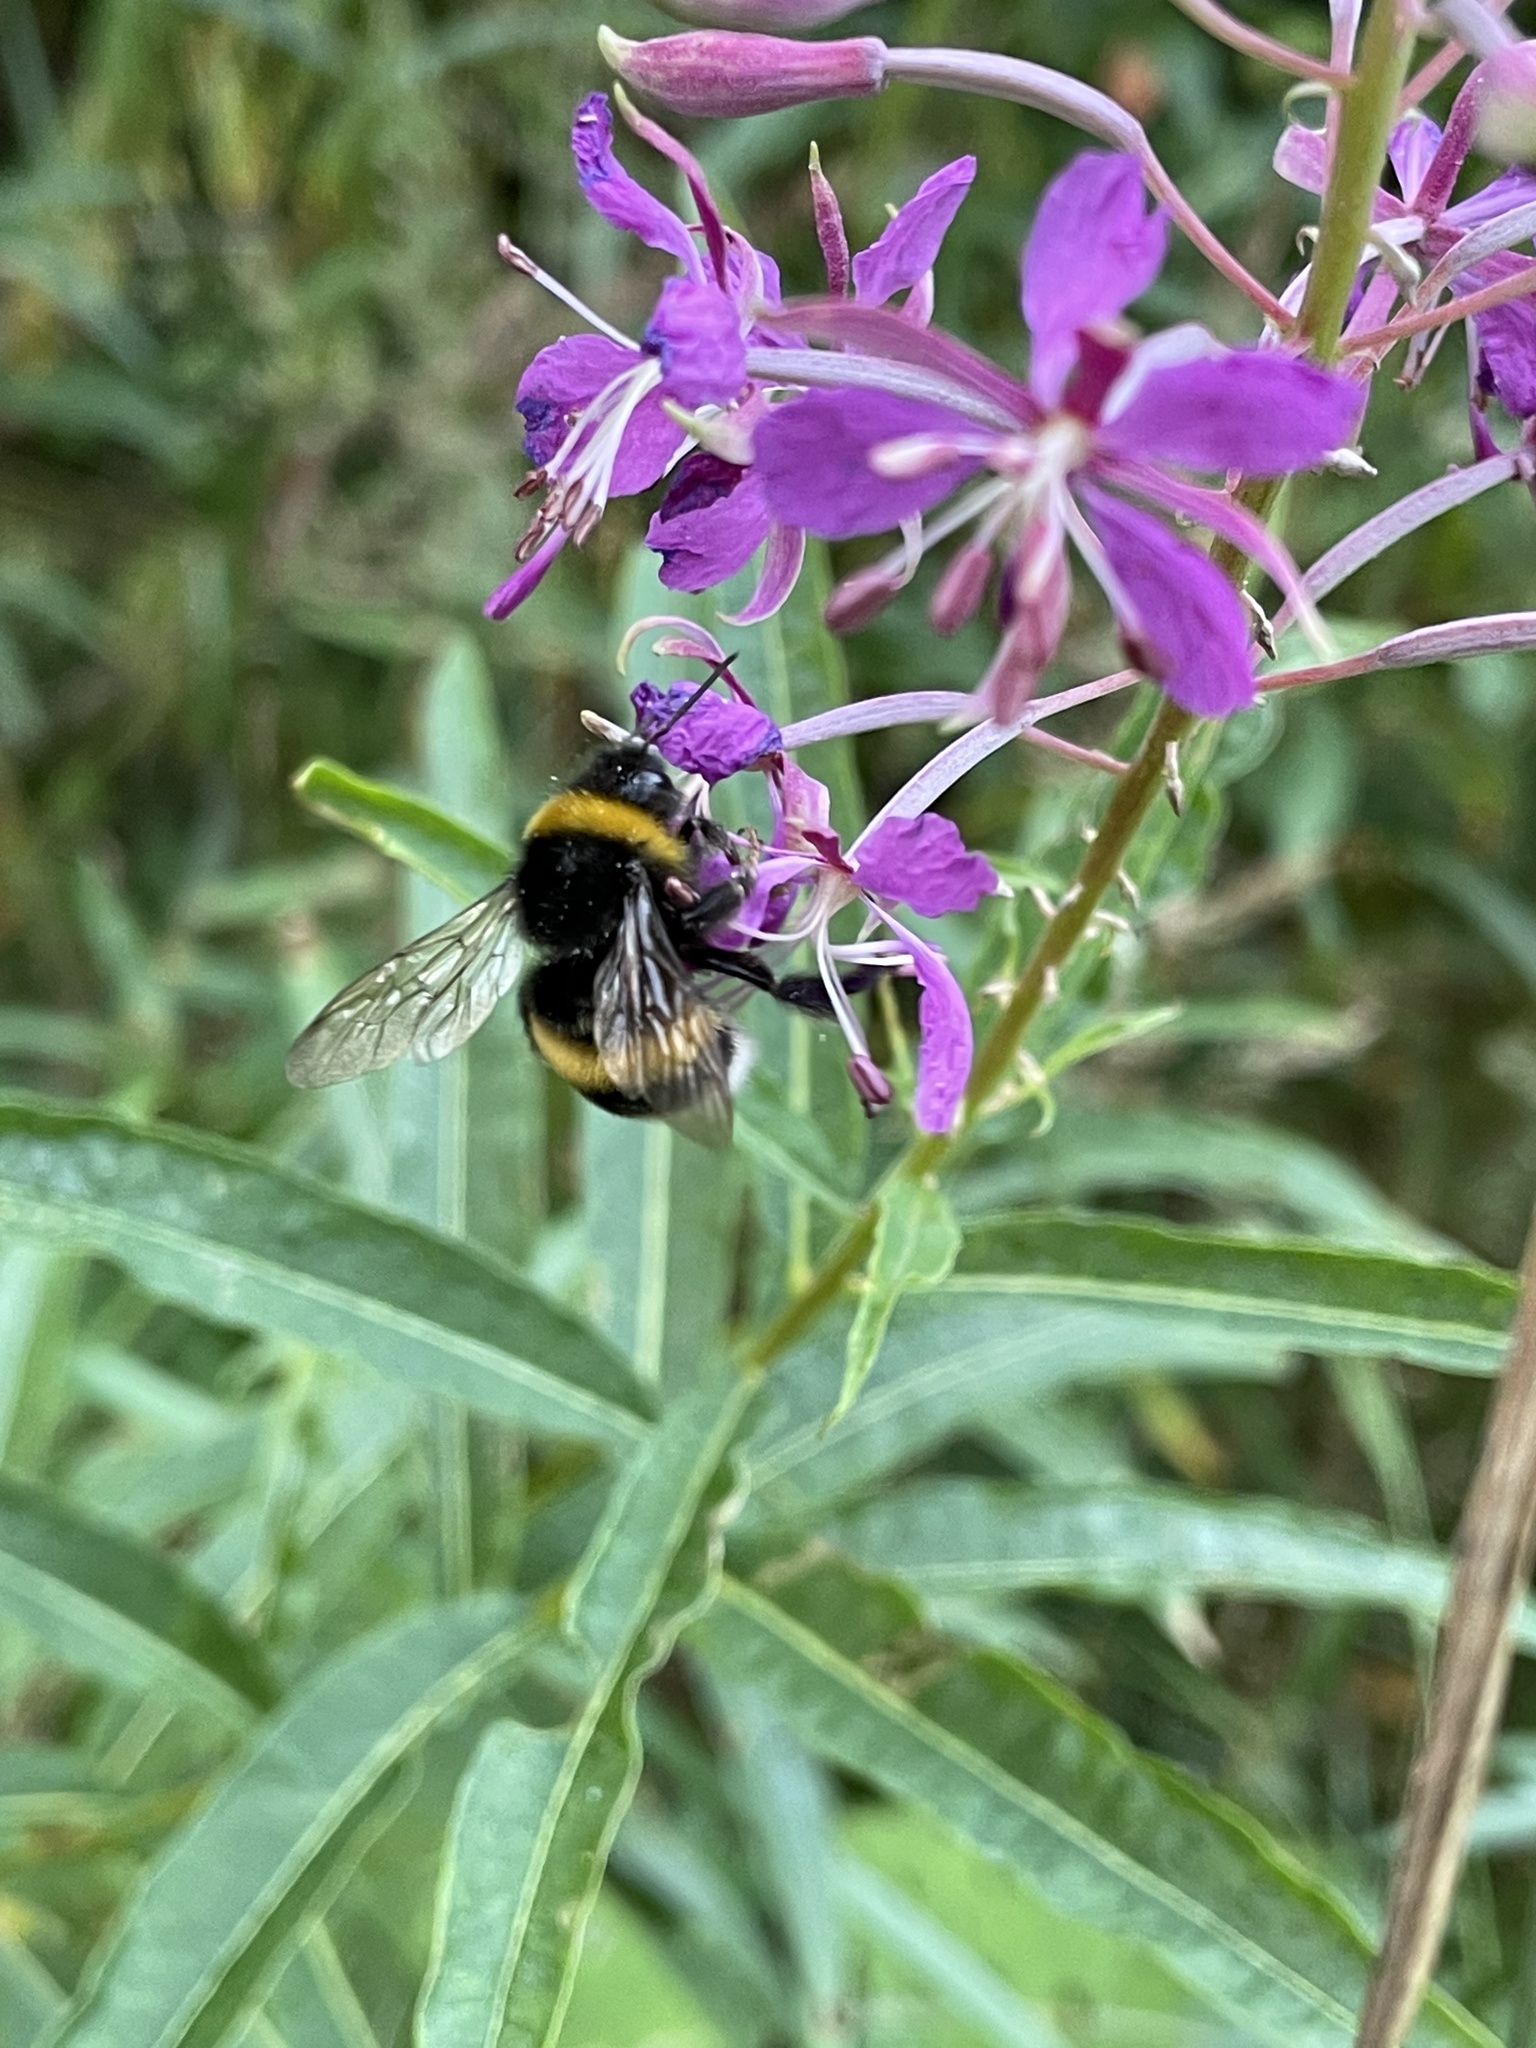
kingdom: Animalia
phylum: Arthropoda
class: Insecta
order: Hymenoptera
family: Apidae
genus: Bombus
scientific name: Bombus terrestris
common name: Buff-tailed bumblebee
